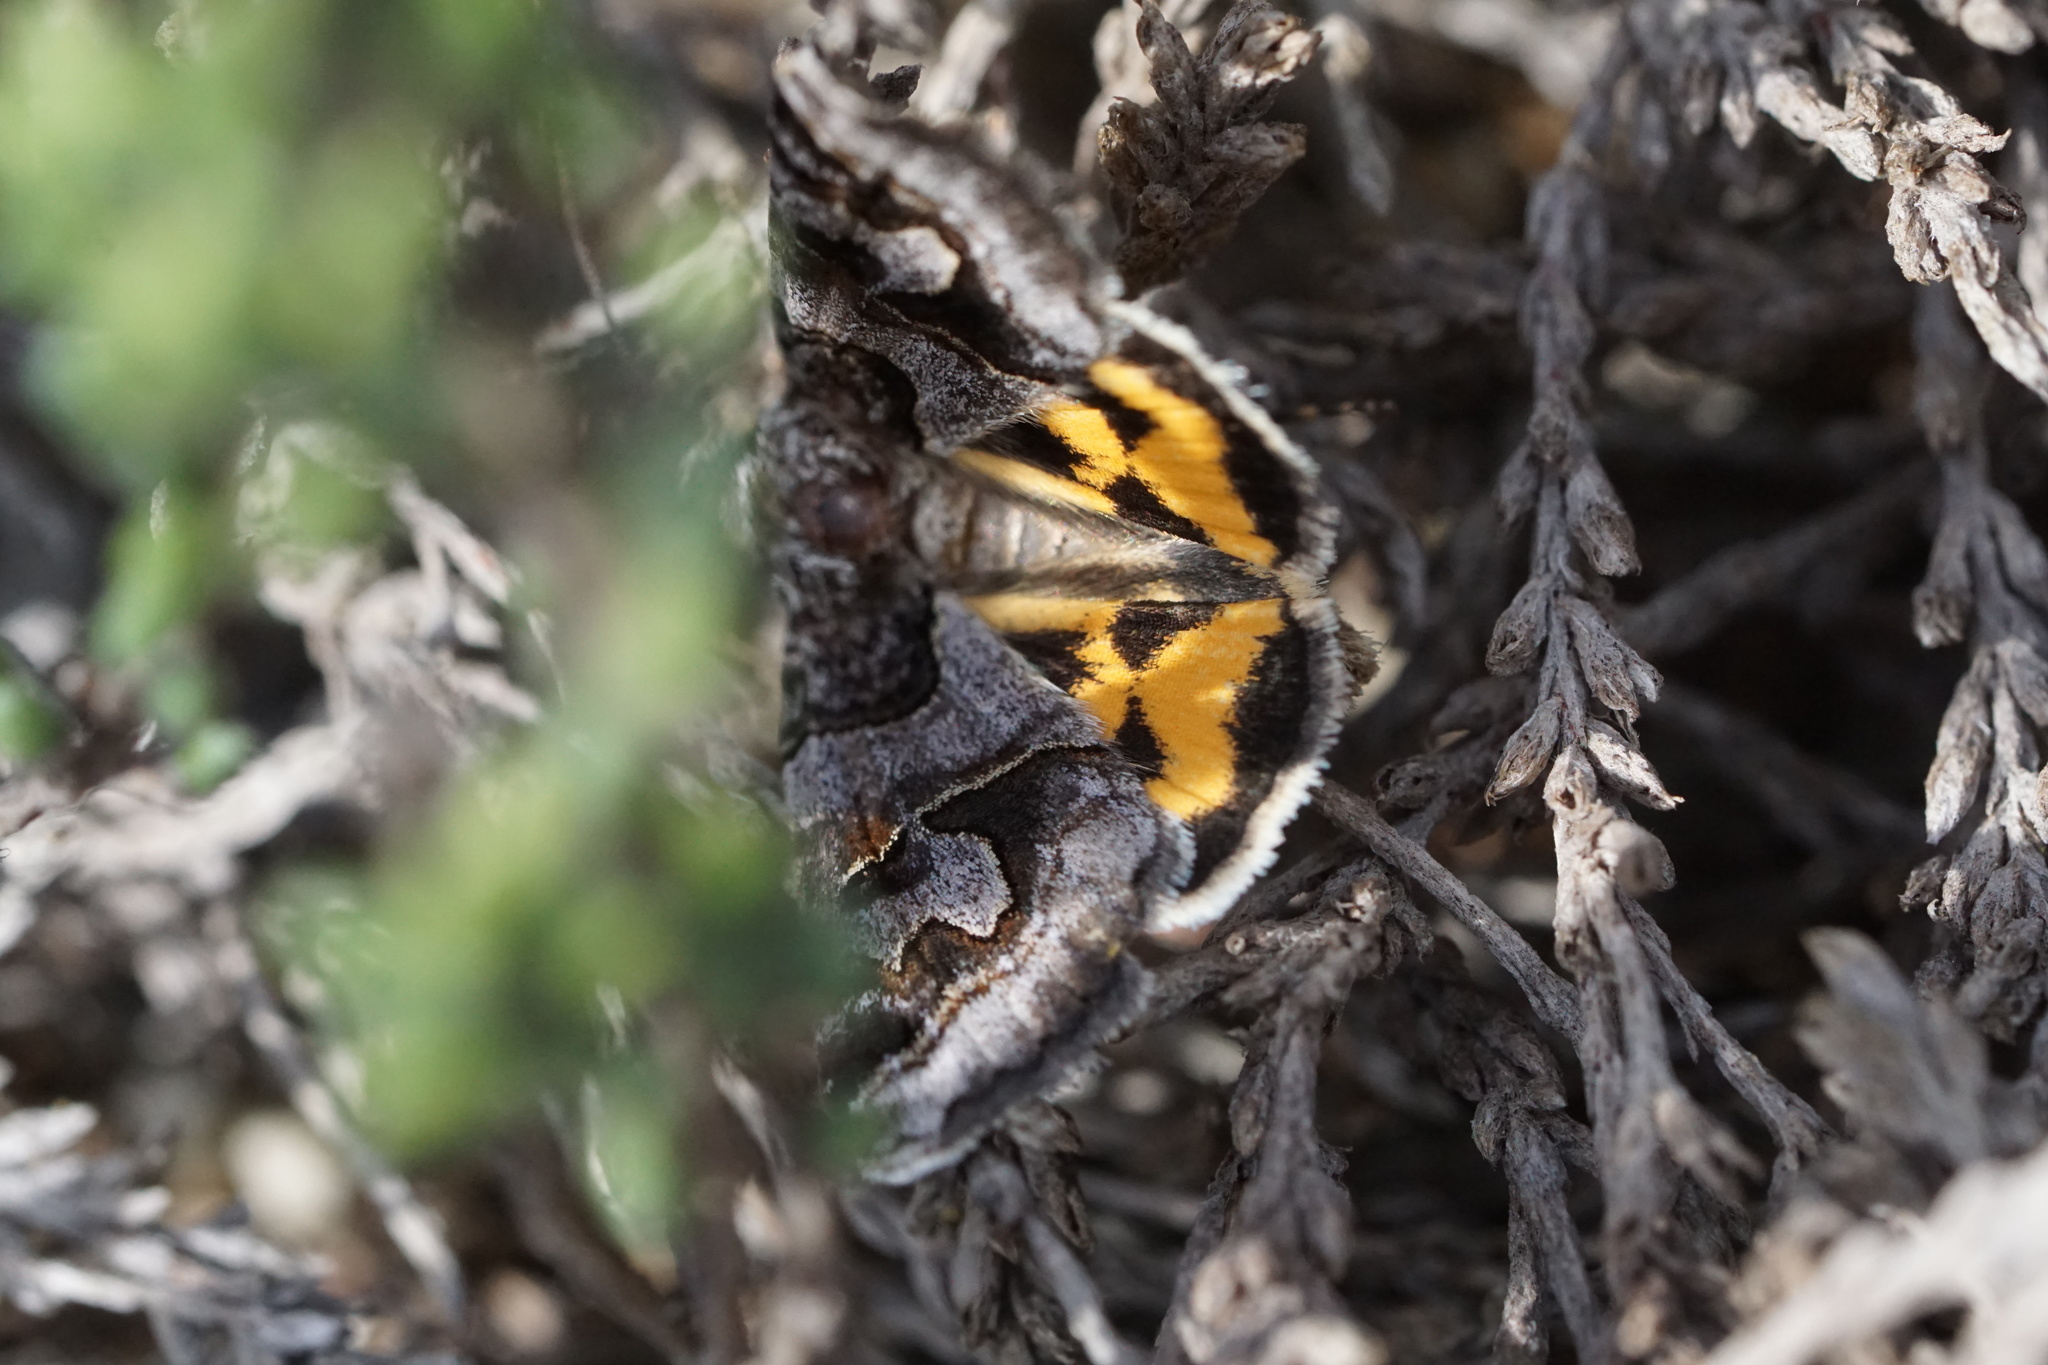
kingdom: Animalia
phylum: Arthropoda
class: Insecta
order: Lepidoptera
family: Erebidae
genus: Drasteria
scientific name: Drasteria graphica
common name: Coastal graphic
